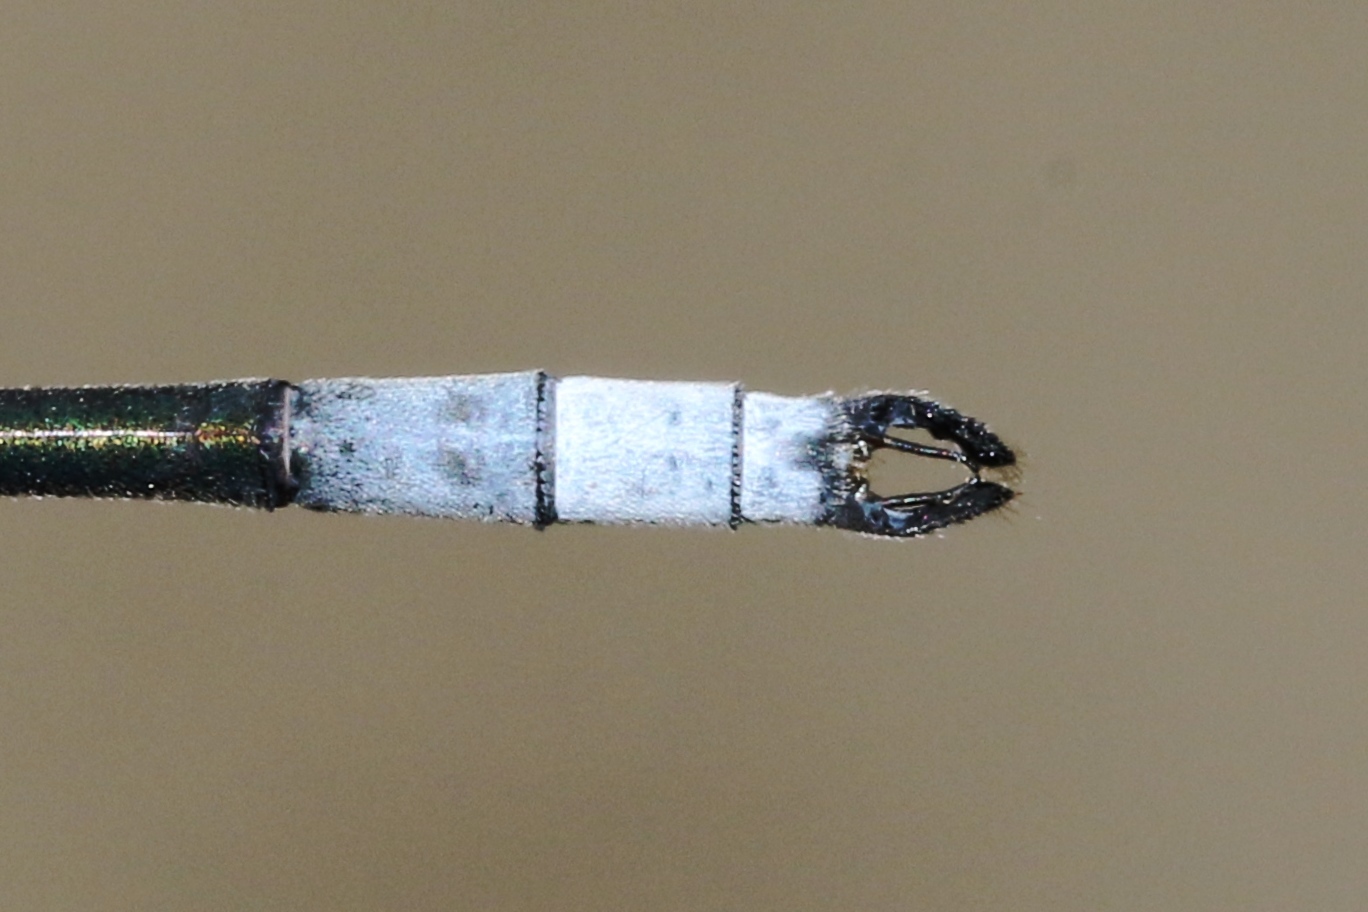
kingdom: Animalia
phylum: Arthropoda
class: Insecta
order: Odonata
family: Lestidae
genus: Lestes
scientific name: Lestes vigilax
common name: Swamp spreadwing
